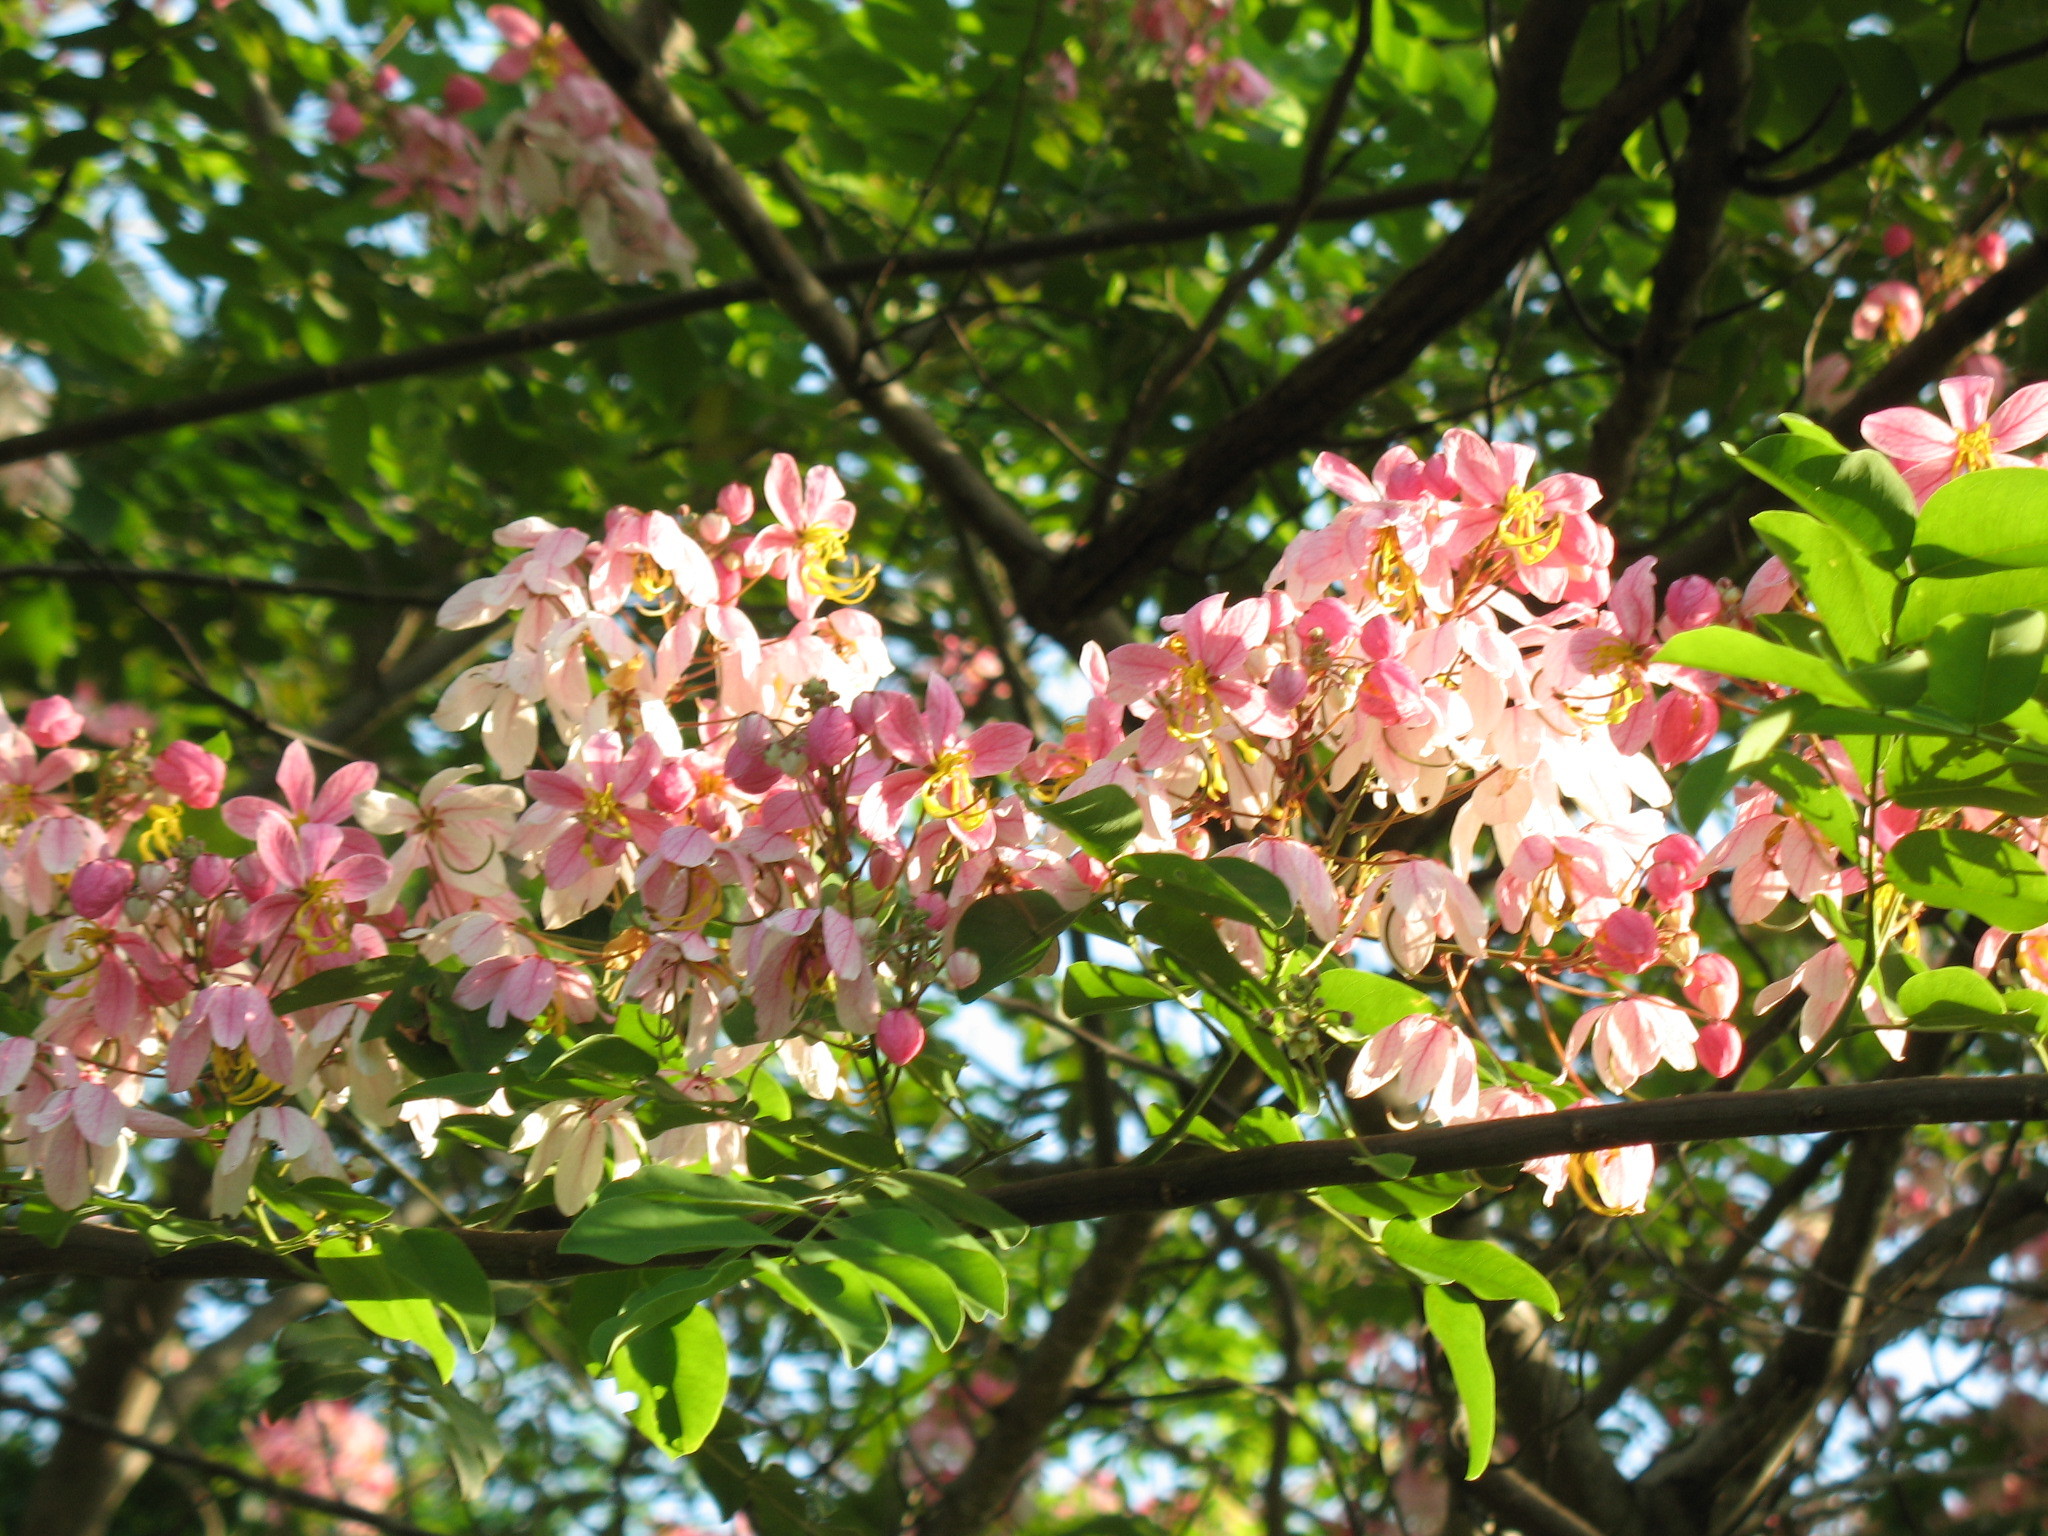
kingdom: Plantae
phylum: Tracheophyta
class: Magnoliopsida
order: Fabales
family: Fabaceae
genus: Cassia
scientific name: Cassia mannii
